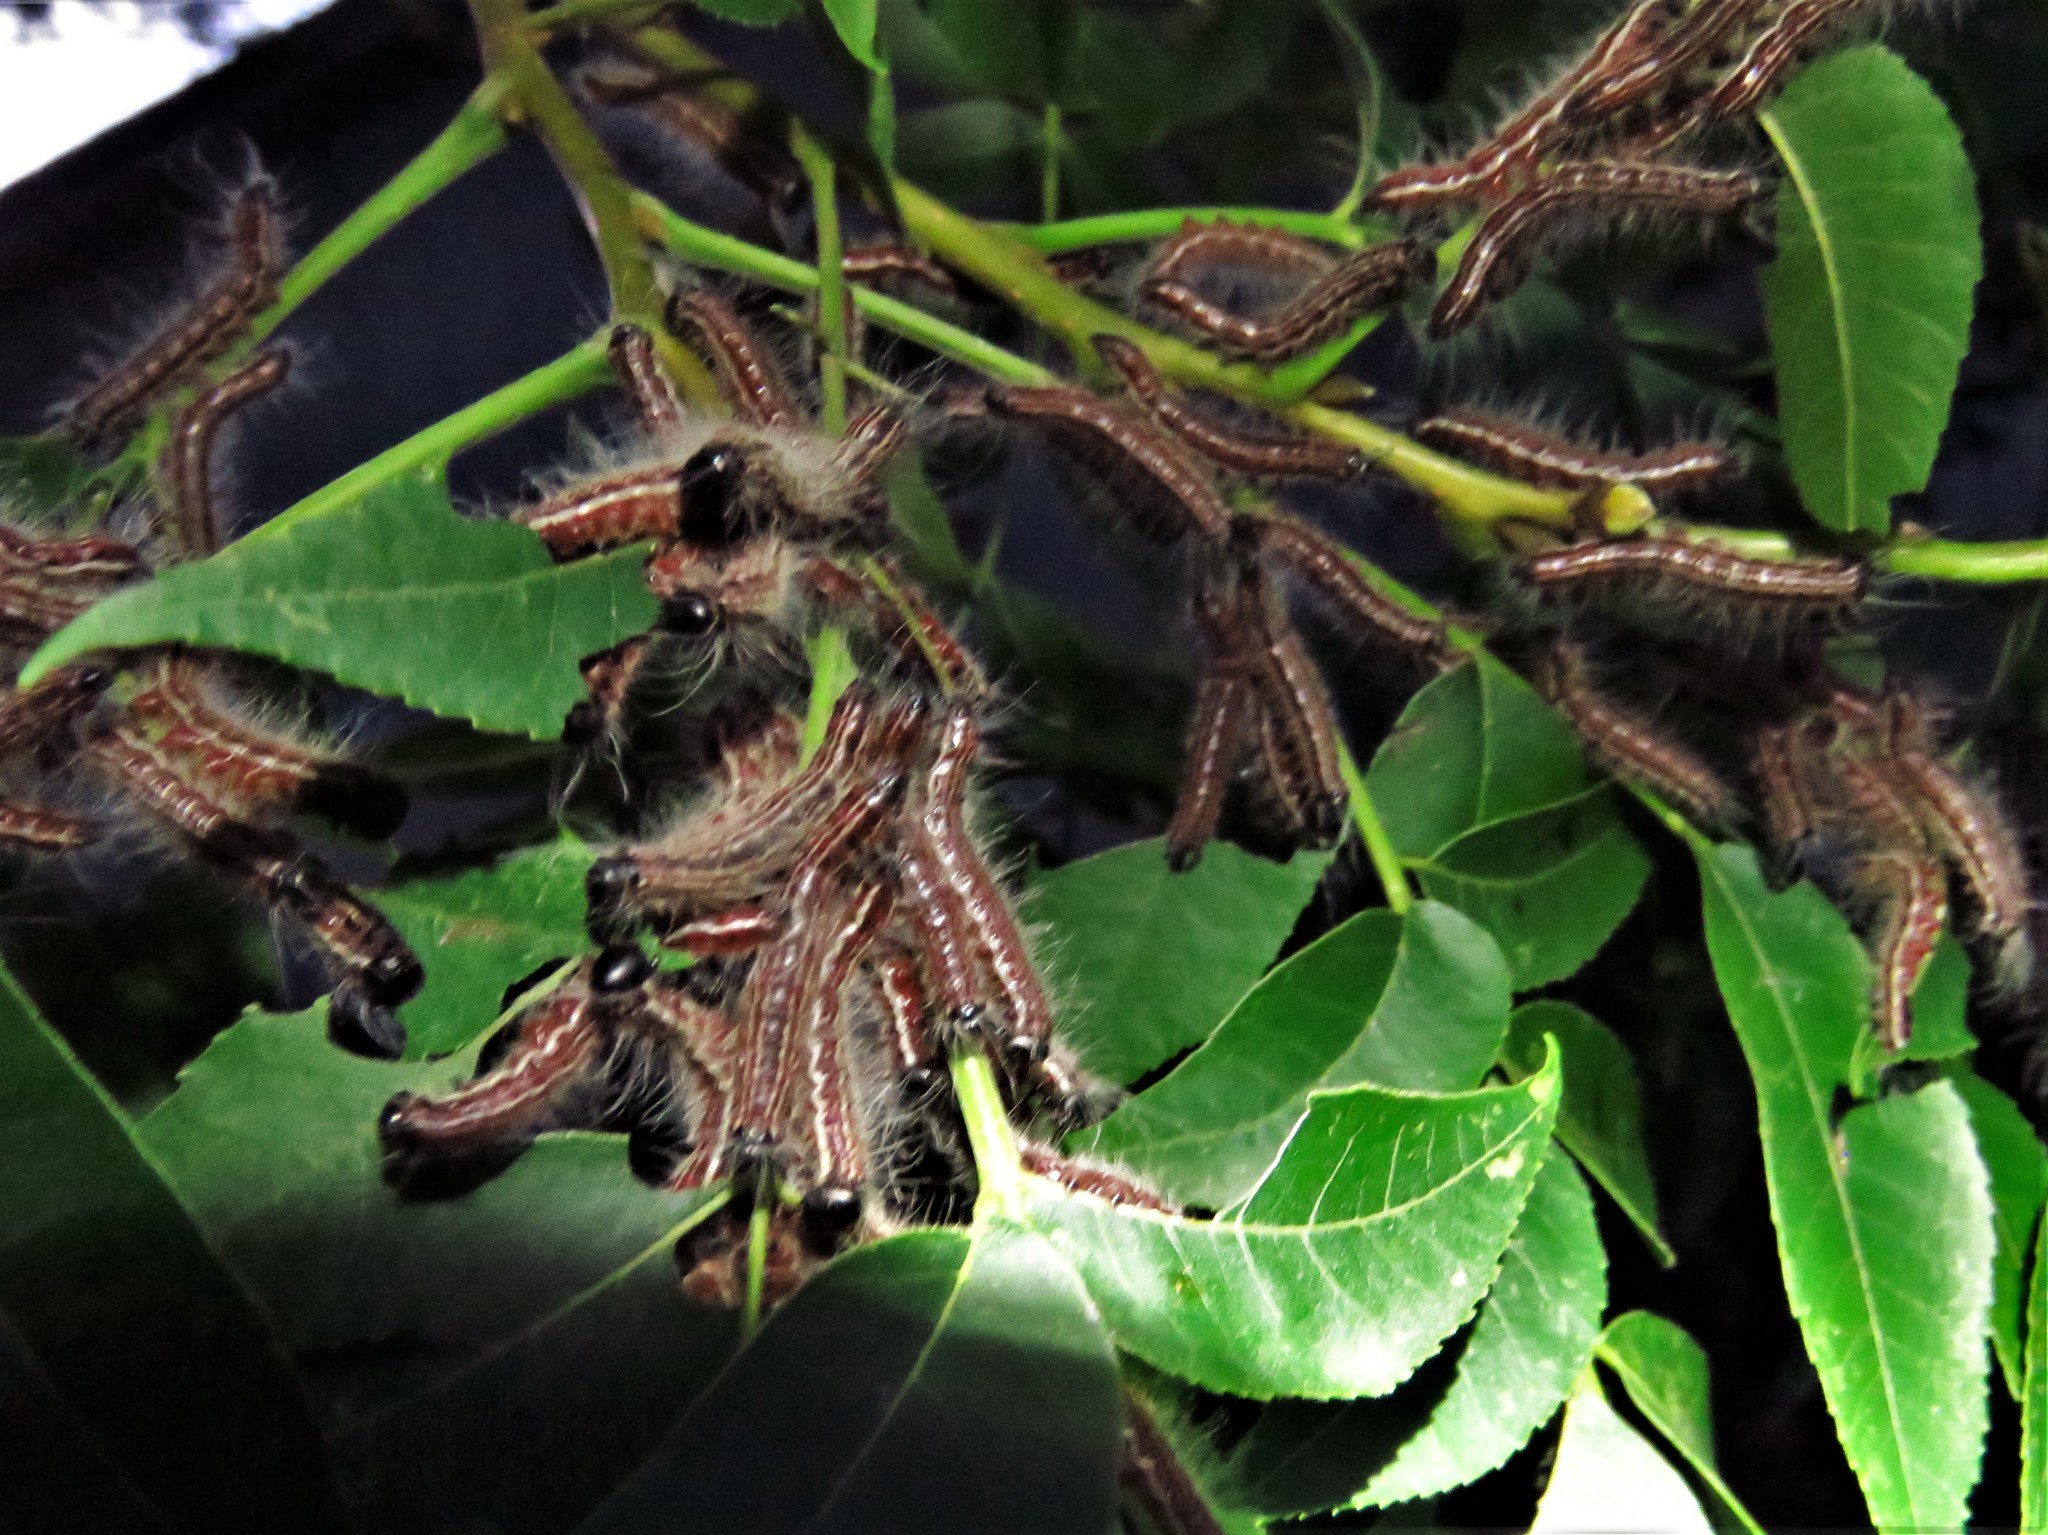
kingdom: Animalia
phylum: Arthropoda
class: Insecta
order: Lepidoptera
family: Notodontidae
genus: Datana
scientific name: Datana integerrima
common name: Walnut caterpillar
